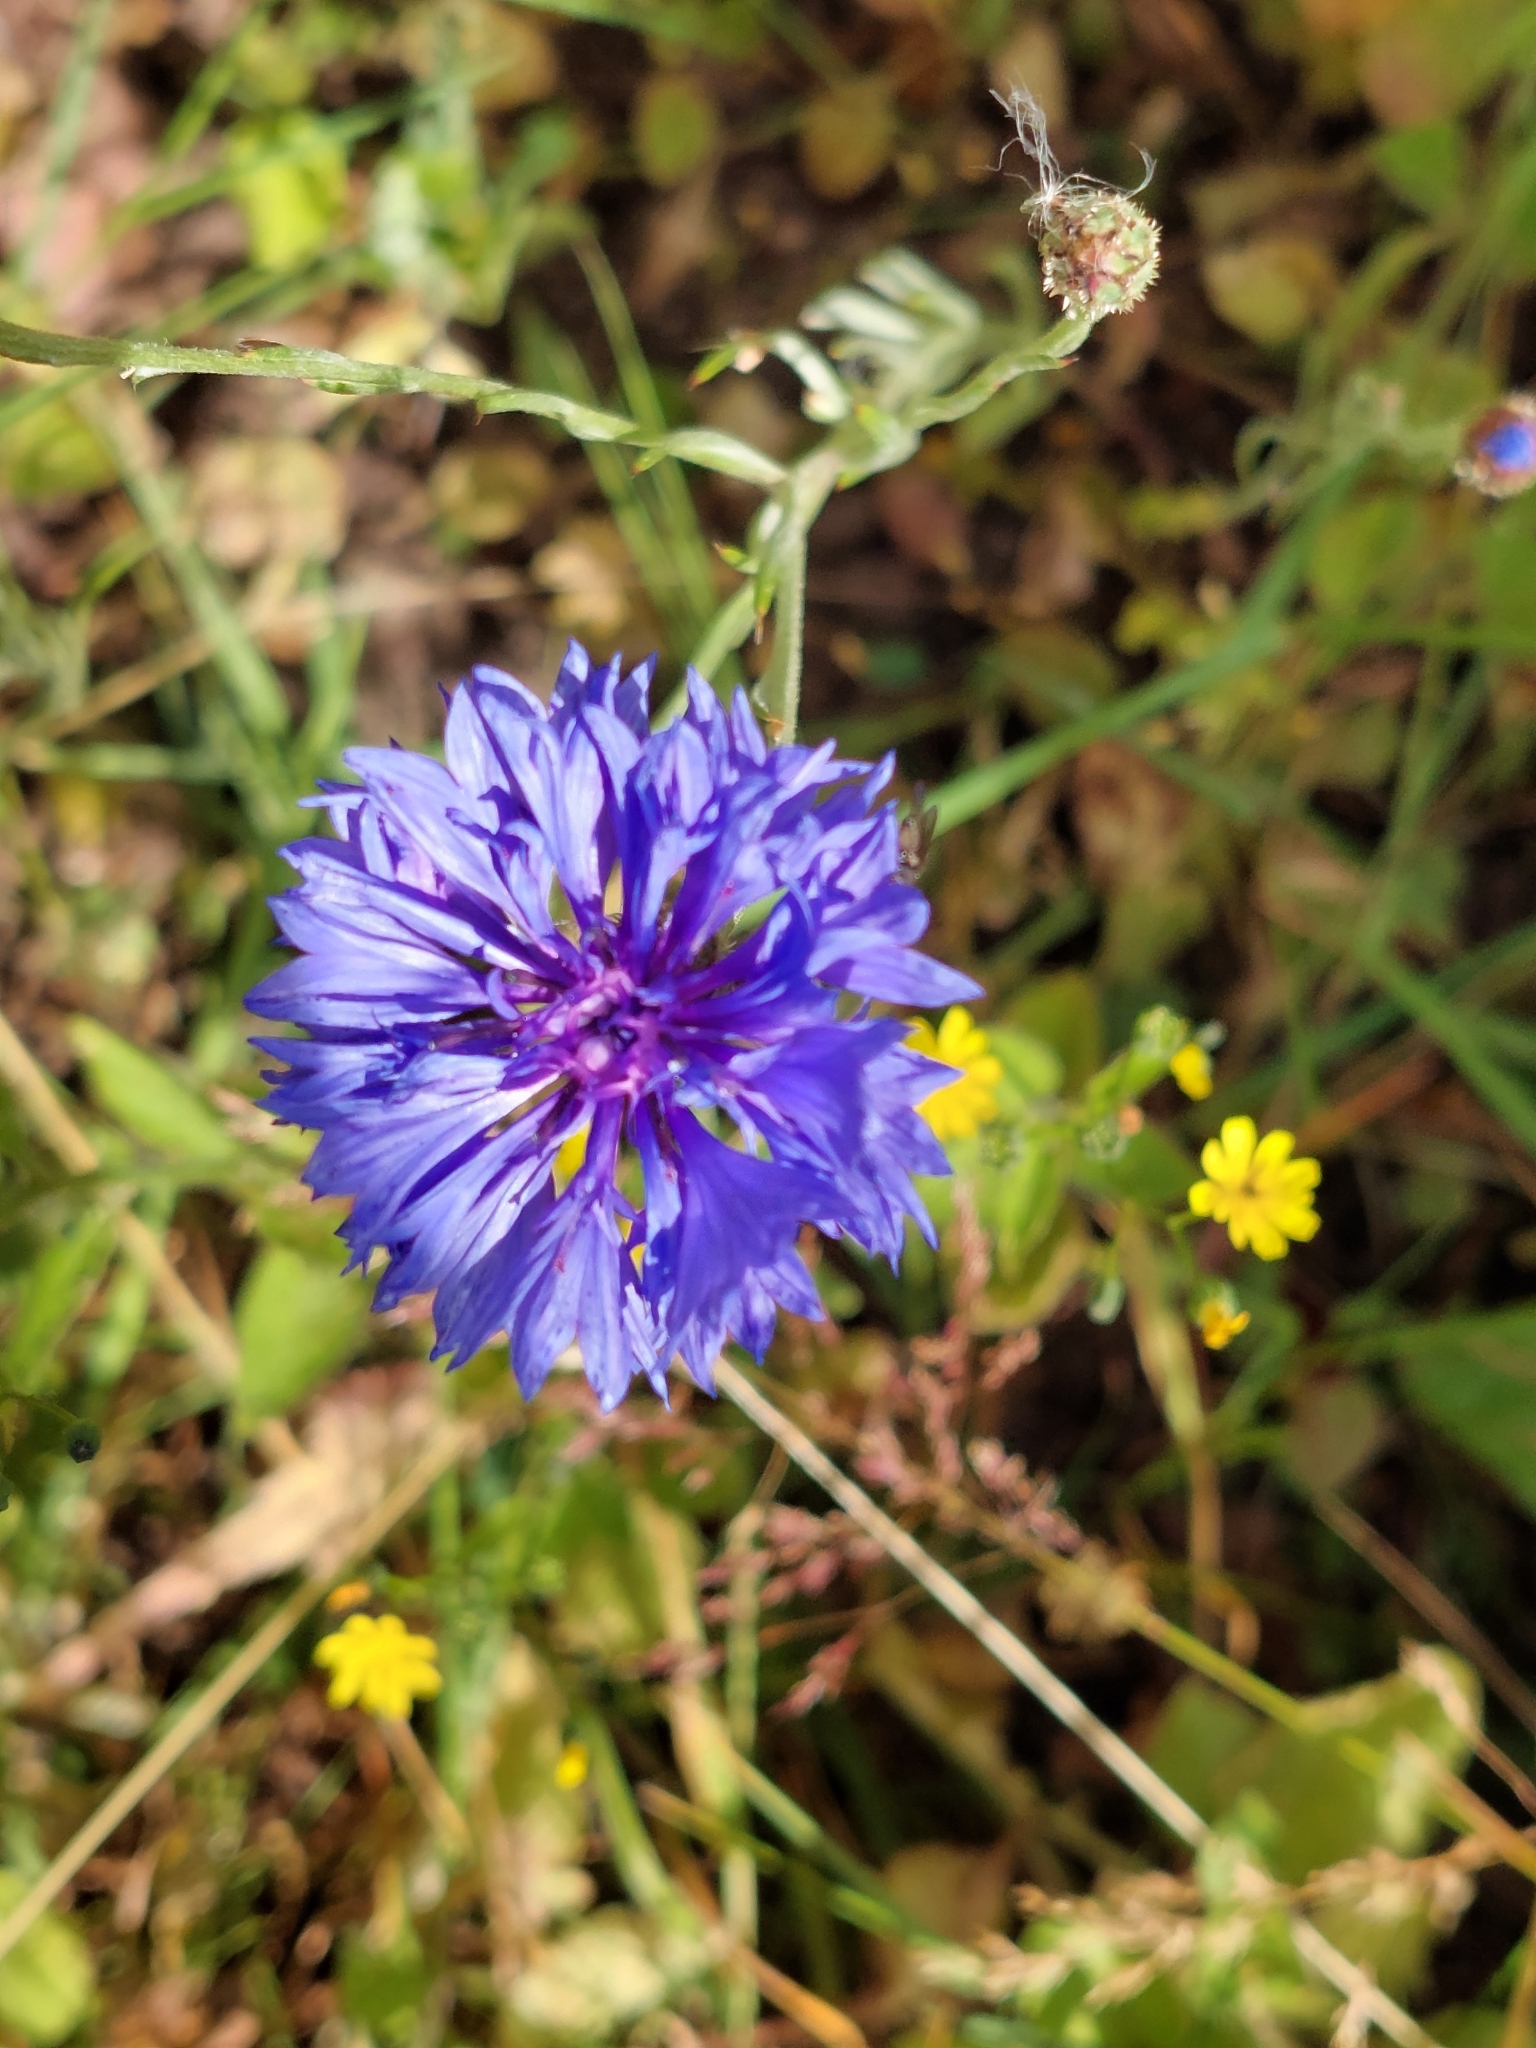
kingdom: Plantae
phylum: Tracheophyta
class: Magnoliopsida
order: Asterales
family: Asteraceae
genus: Centaurea
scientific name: Centaurea cyanus
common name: Cornflower
